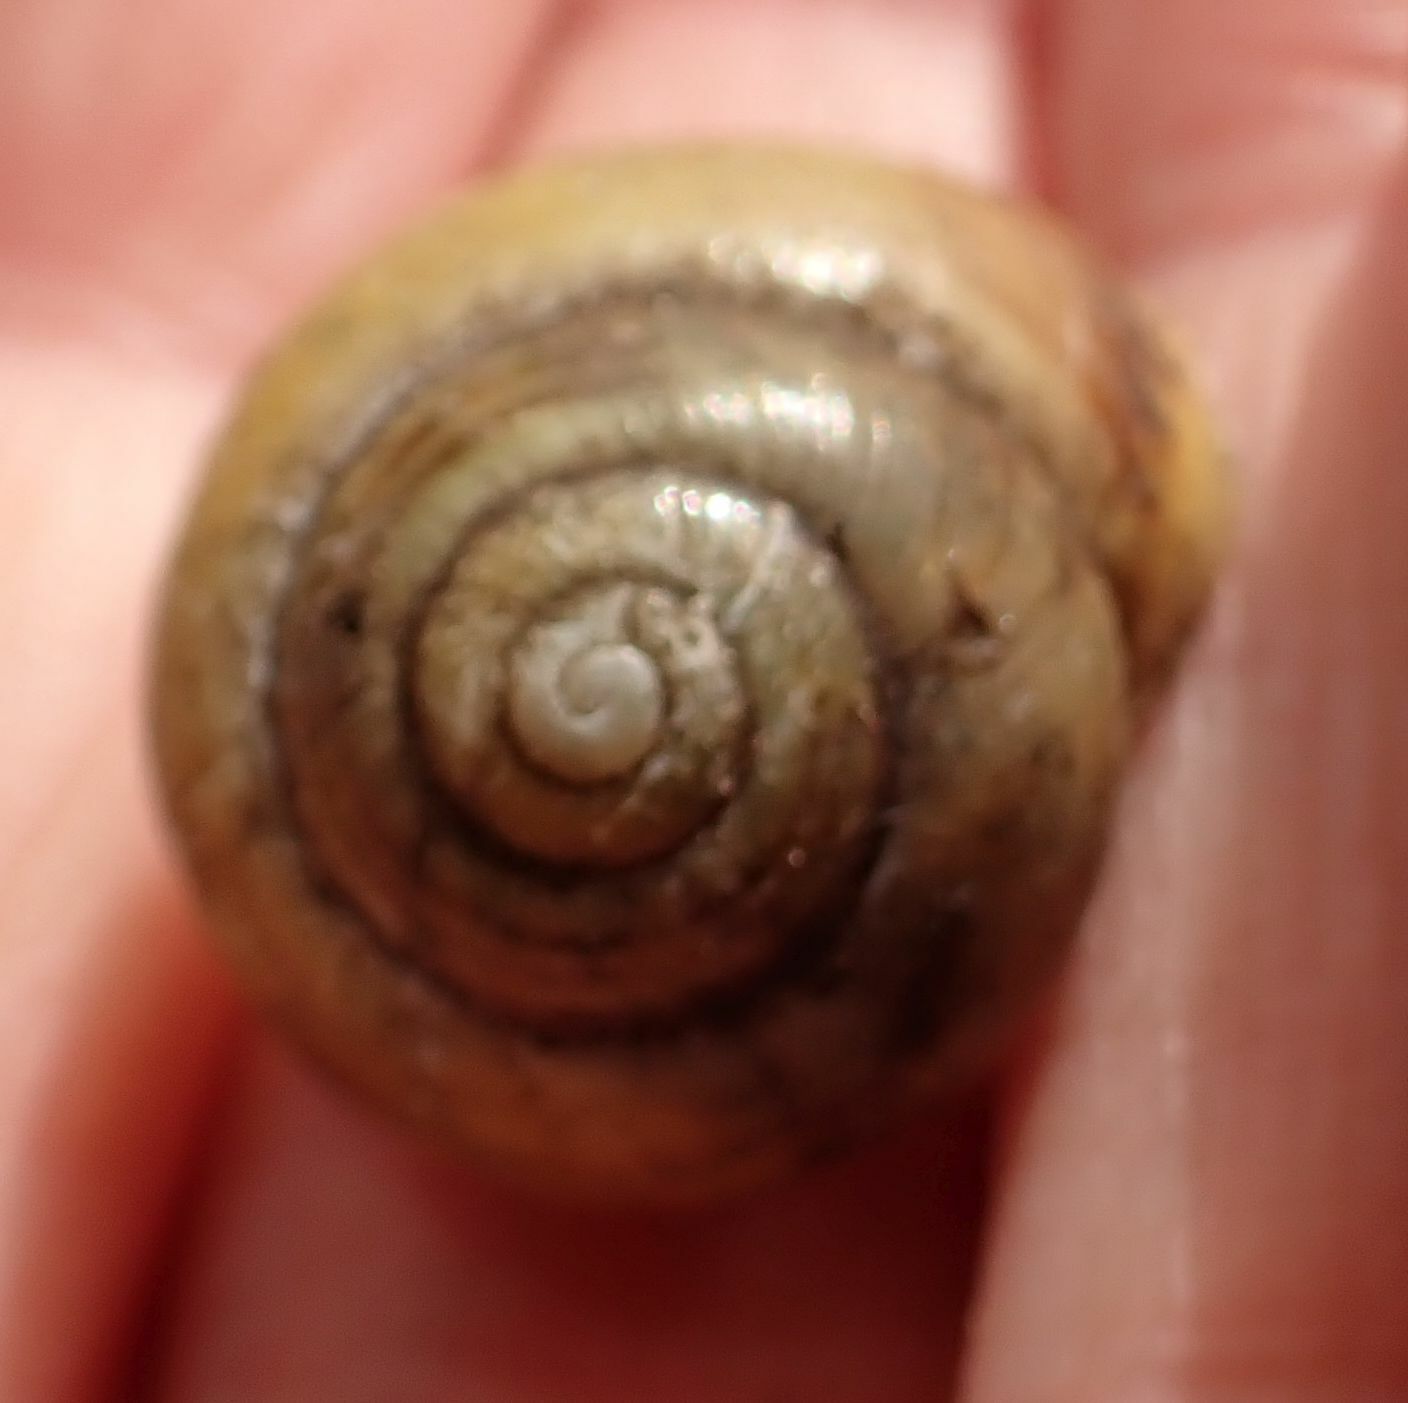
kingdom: Animalia
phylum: Mollusca
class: Gastropoda
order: Stylommatophora
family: Helicidae
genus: Cepaea
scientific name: Cepaea hortensis
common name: White-lip gardensnail
